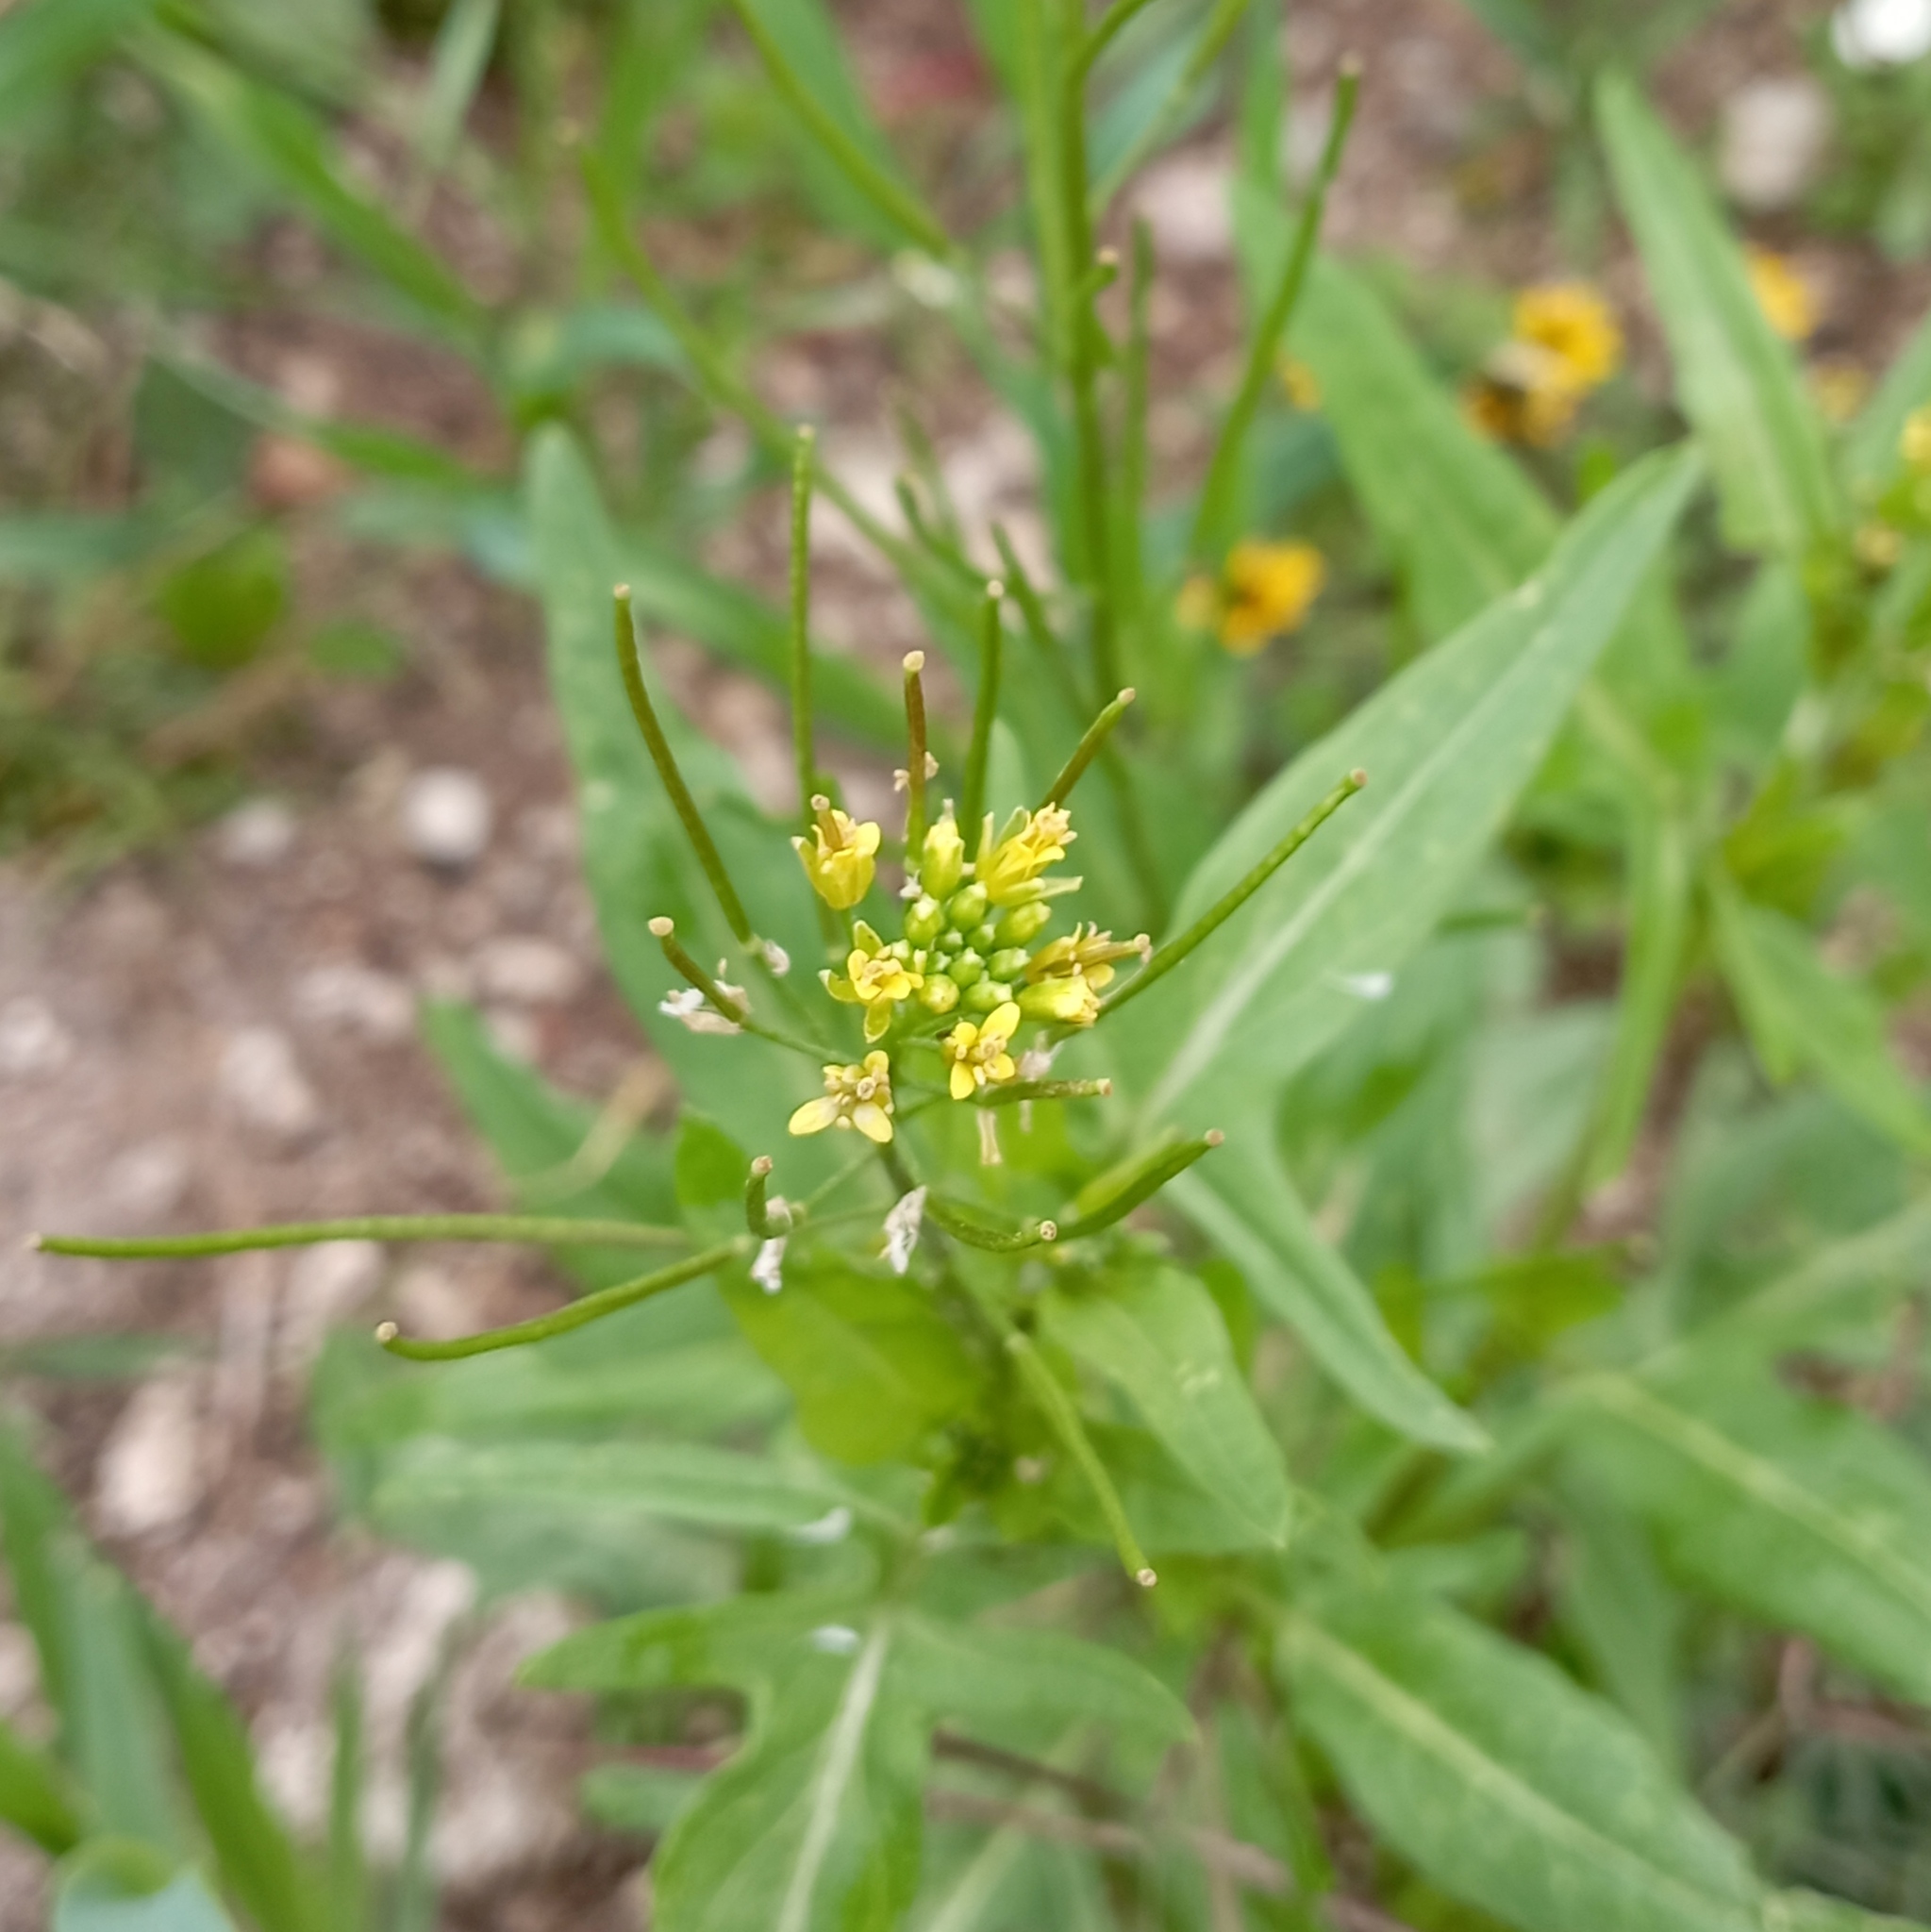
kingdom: Plantae
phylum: Tracheophyta
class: Magnoliopsida
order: Brassicales
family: Brassicaceae
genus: Sisymbrium
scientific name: Sisymbrium irio
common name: London rocket
